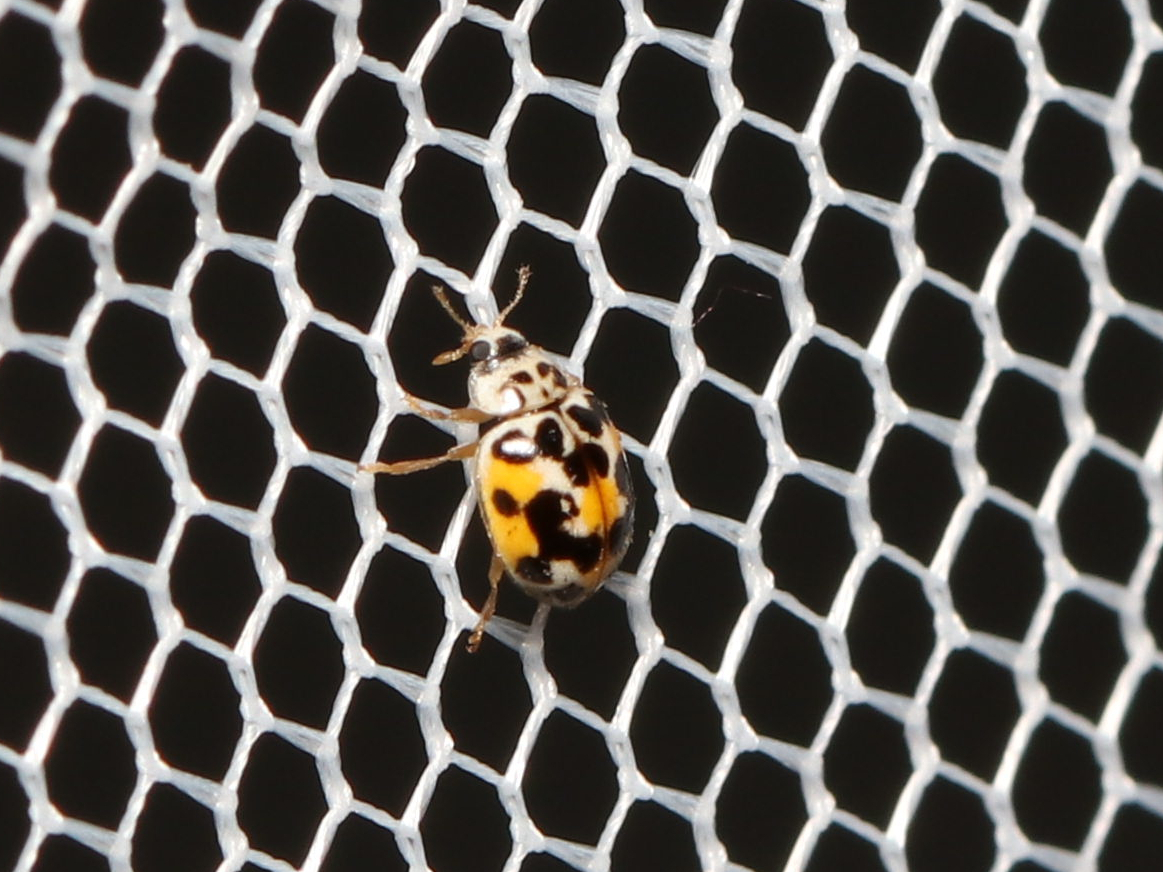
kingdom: Animalia
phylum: Arthropoda
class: Insecta
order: Coleoptera
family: Coccinellidae
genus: Psyllobora
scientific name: Psyllobora vigintimaculata
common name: Ladybird beetle
